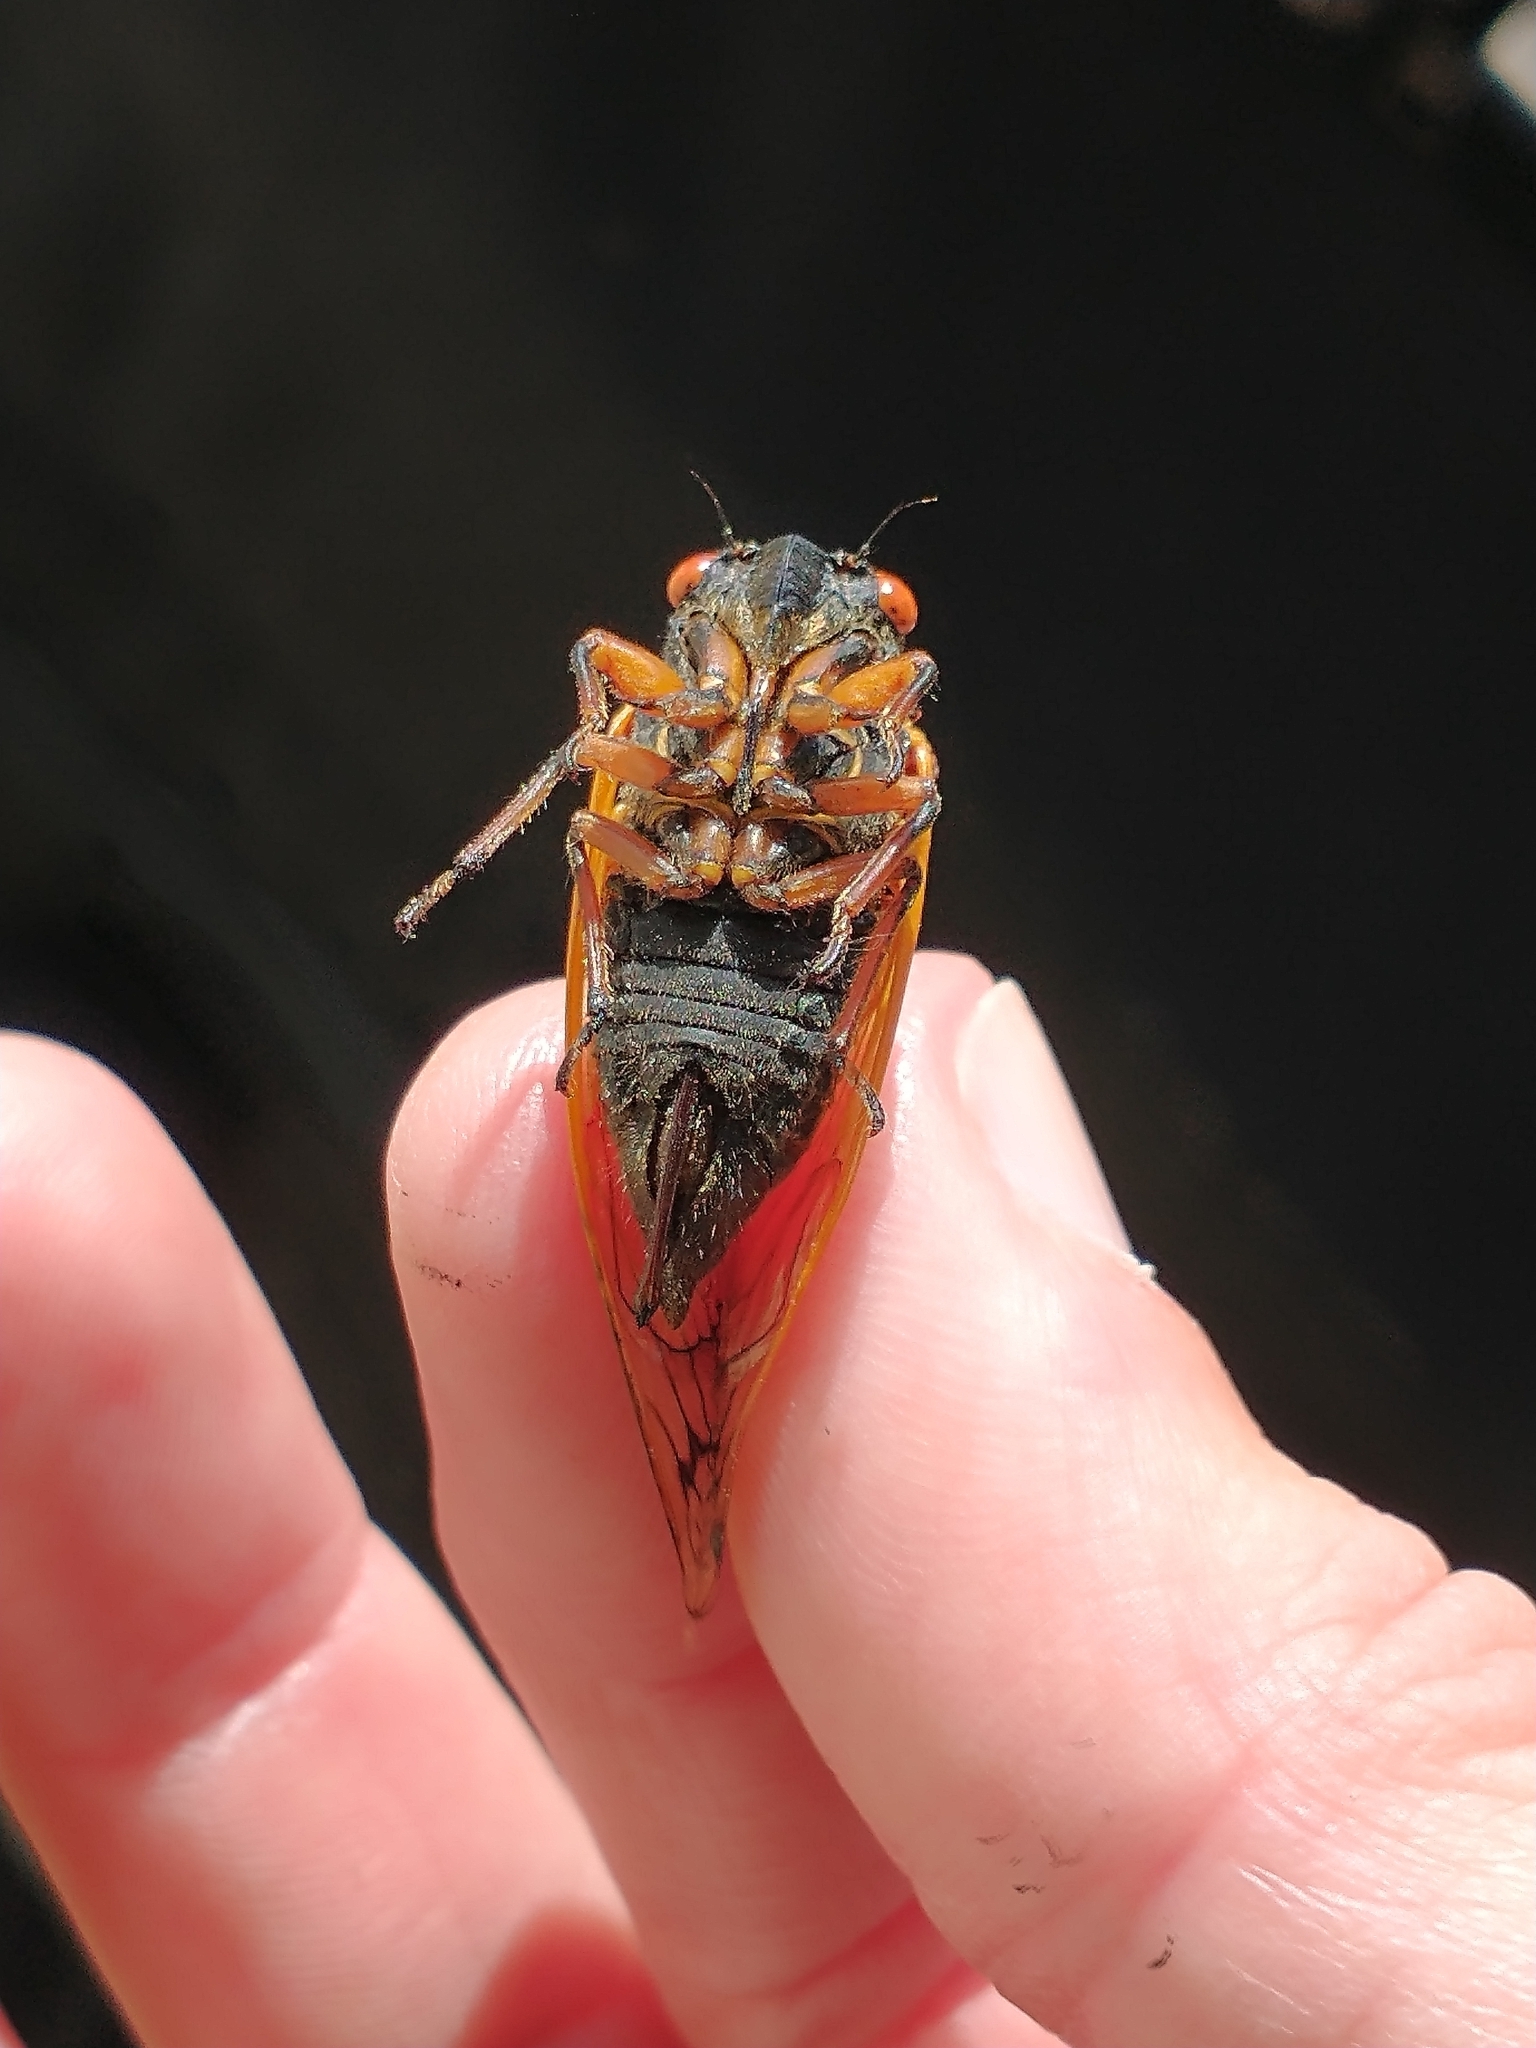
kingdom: Animalia
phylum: Arthropoda
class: Insecta
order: Hemiptera
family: Cicadidae
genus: Magicicada
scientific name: Magicicada cassini
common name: Cassin's 17-year cicada
